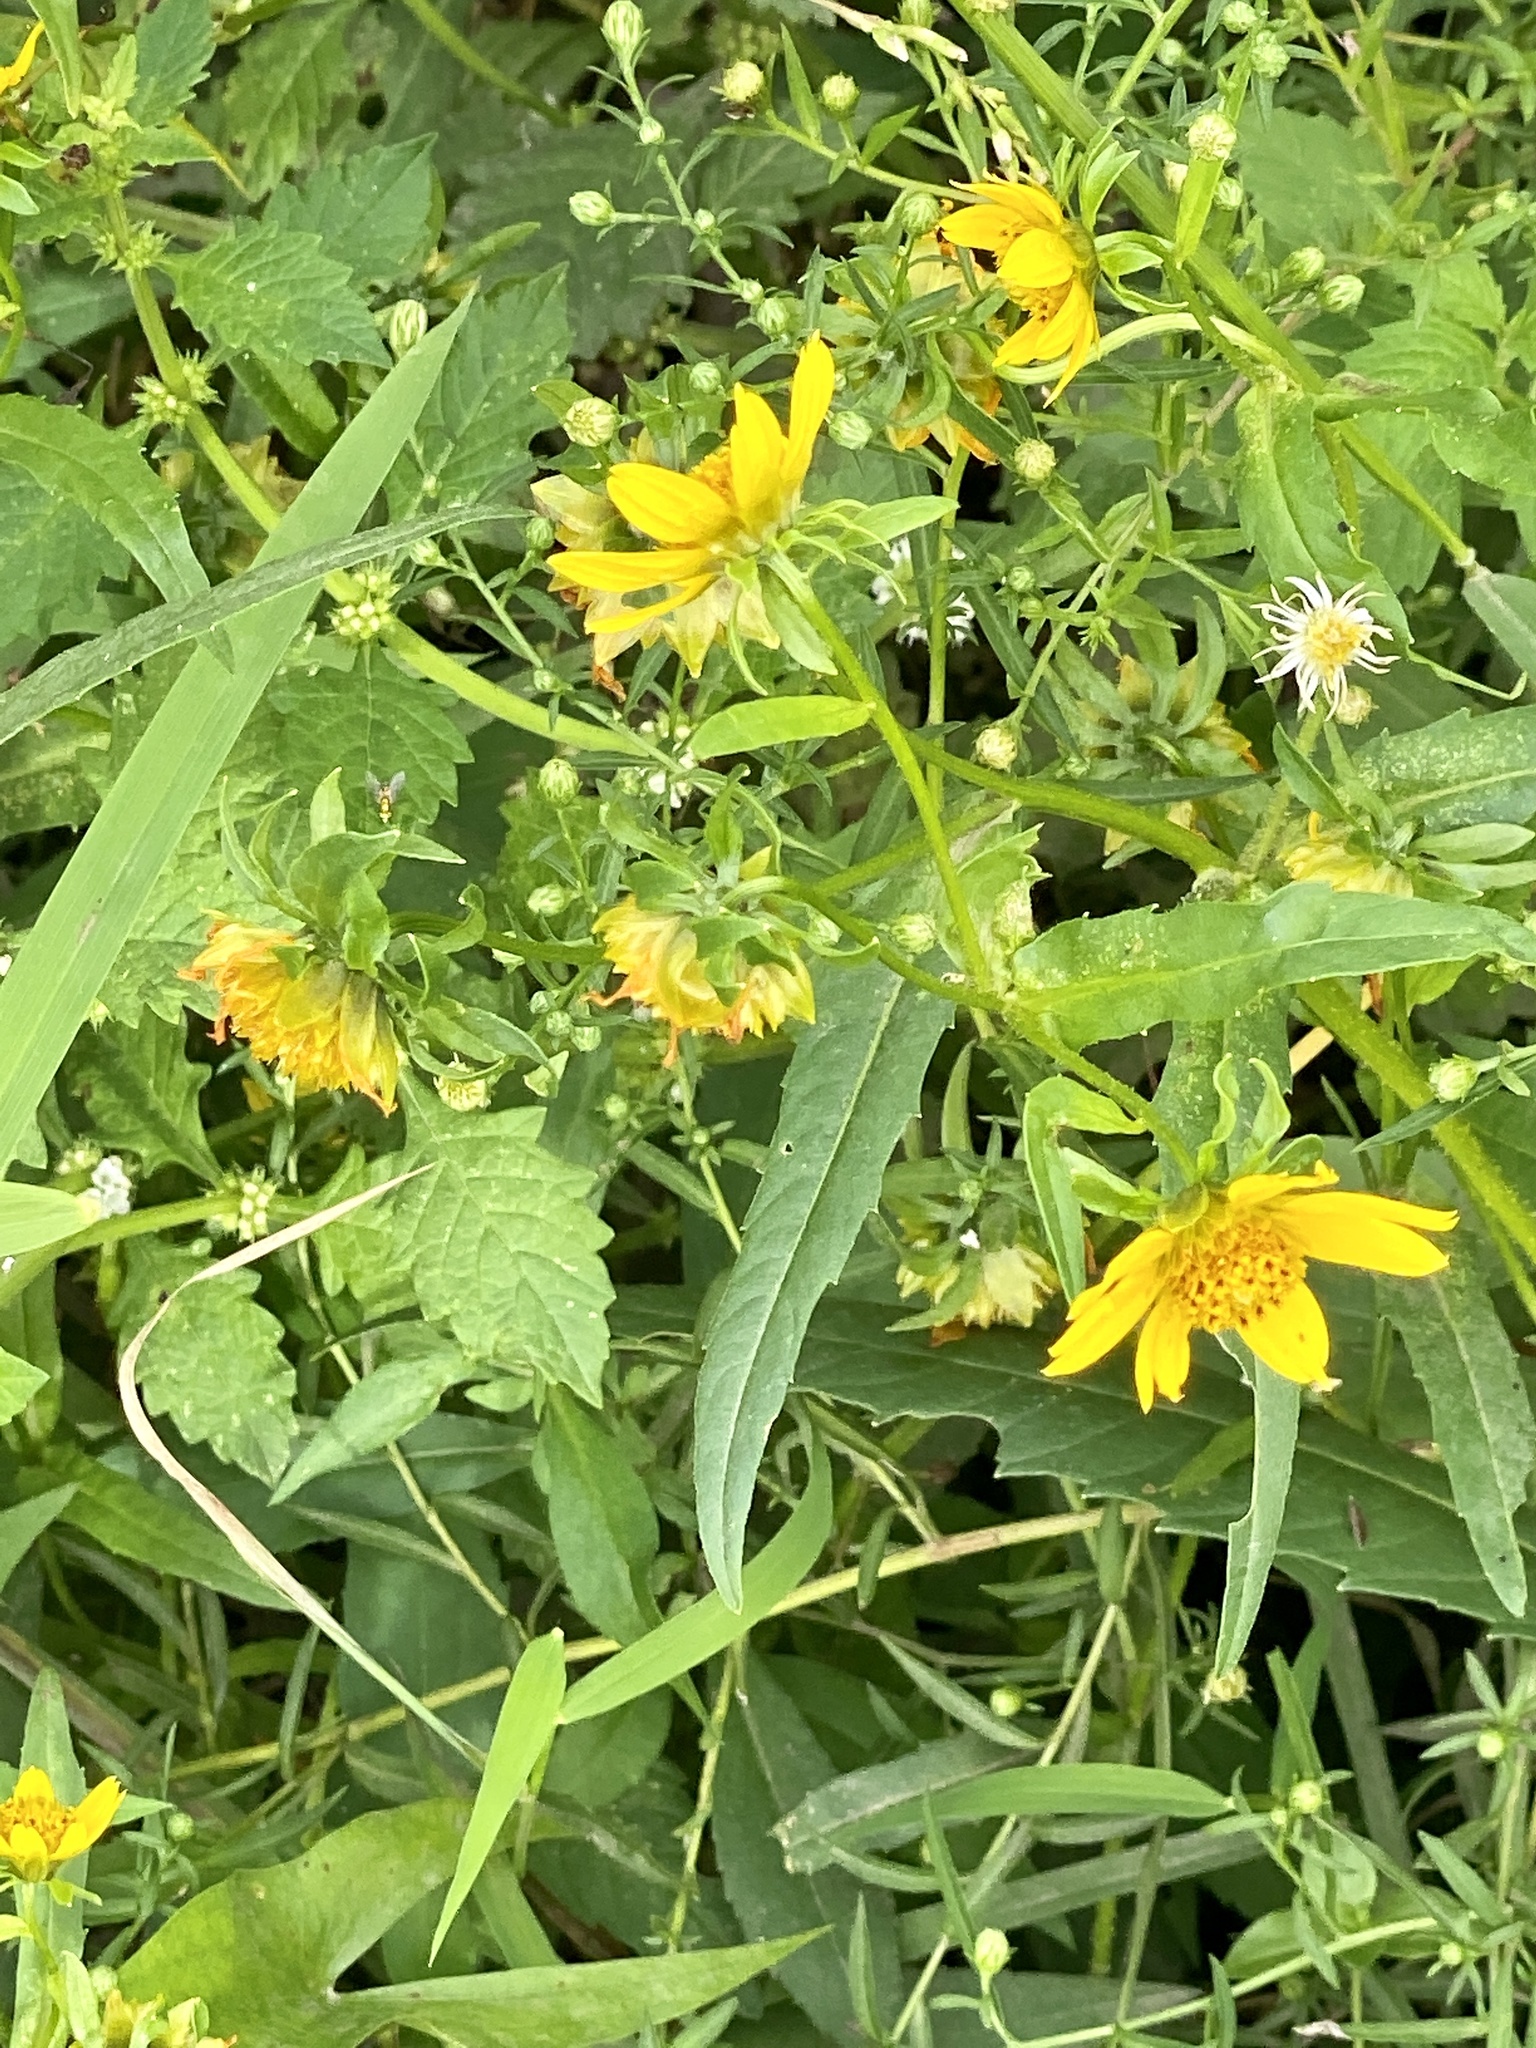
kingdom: Plantae
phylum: Tracheophyta
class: Magnoliopsida
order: Asterales
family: Asteraceae
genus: Bidens
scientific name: Bidens cernua
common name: Nodding bur-marigold
